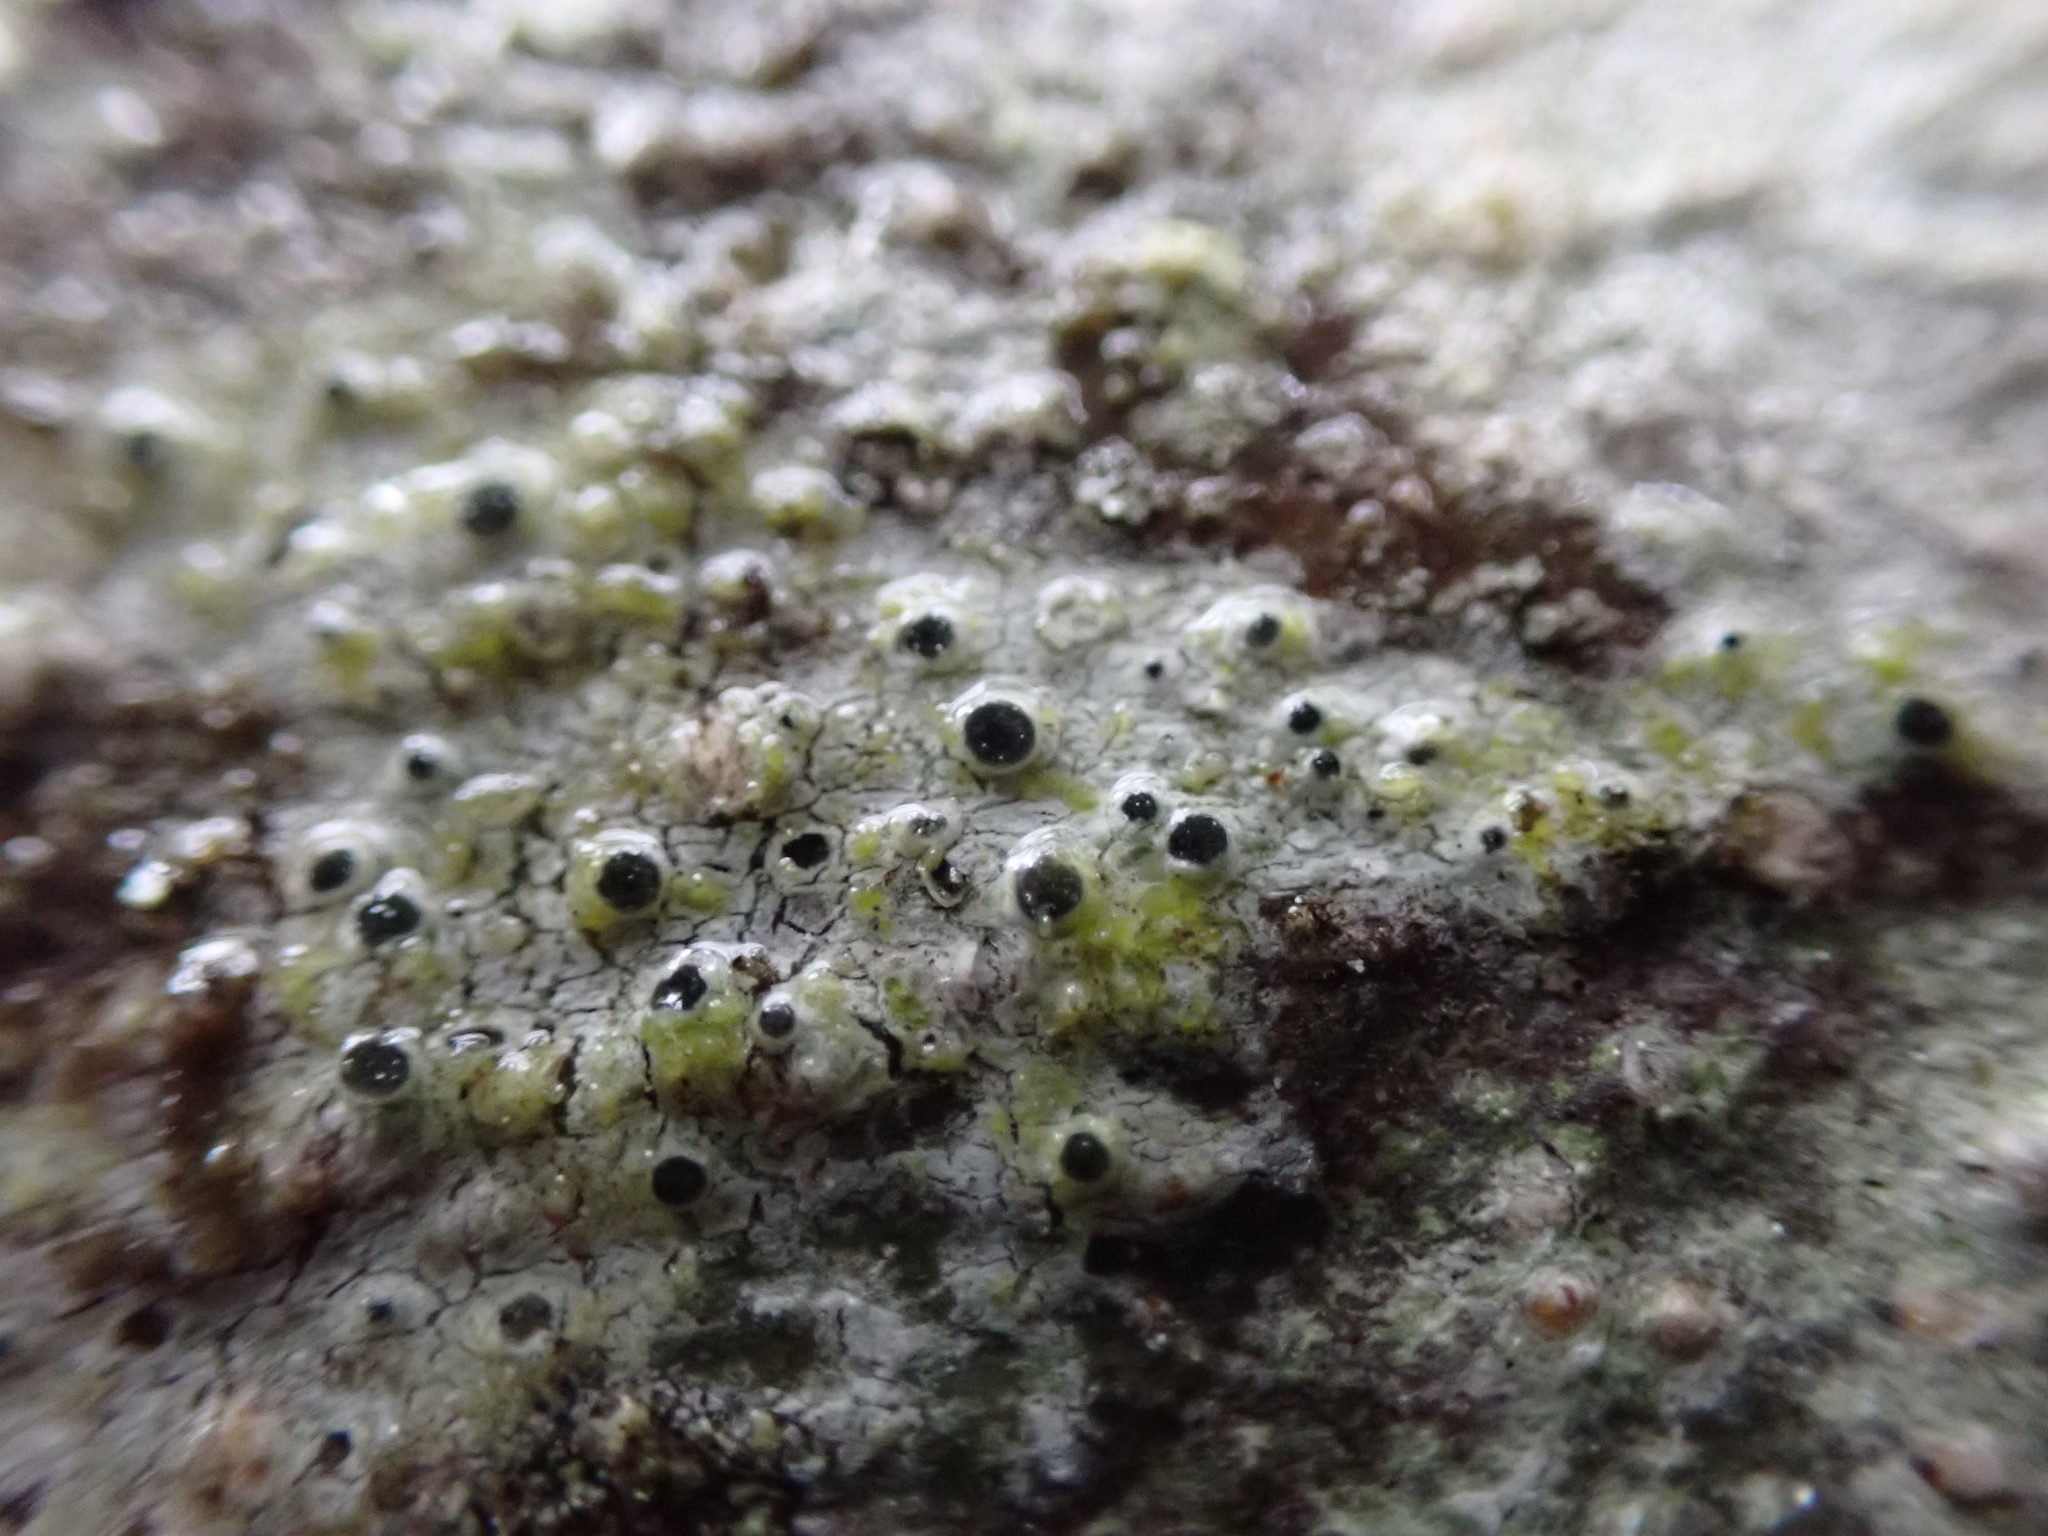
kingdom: Fungi
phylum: Ascomycota
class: Lecanoromycetes
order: Pertusariales
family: Pertusariaceae
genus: Pertusaria
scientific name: Pertusaria stenhammarii
